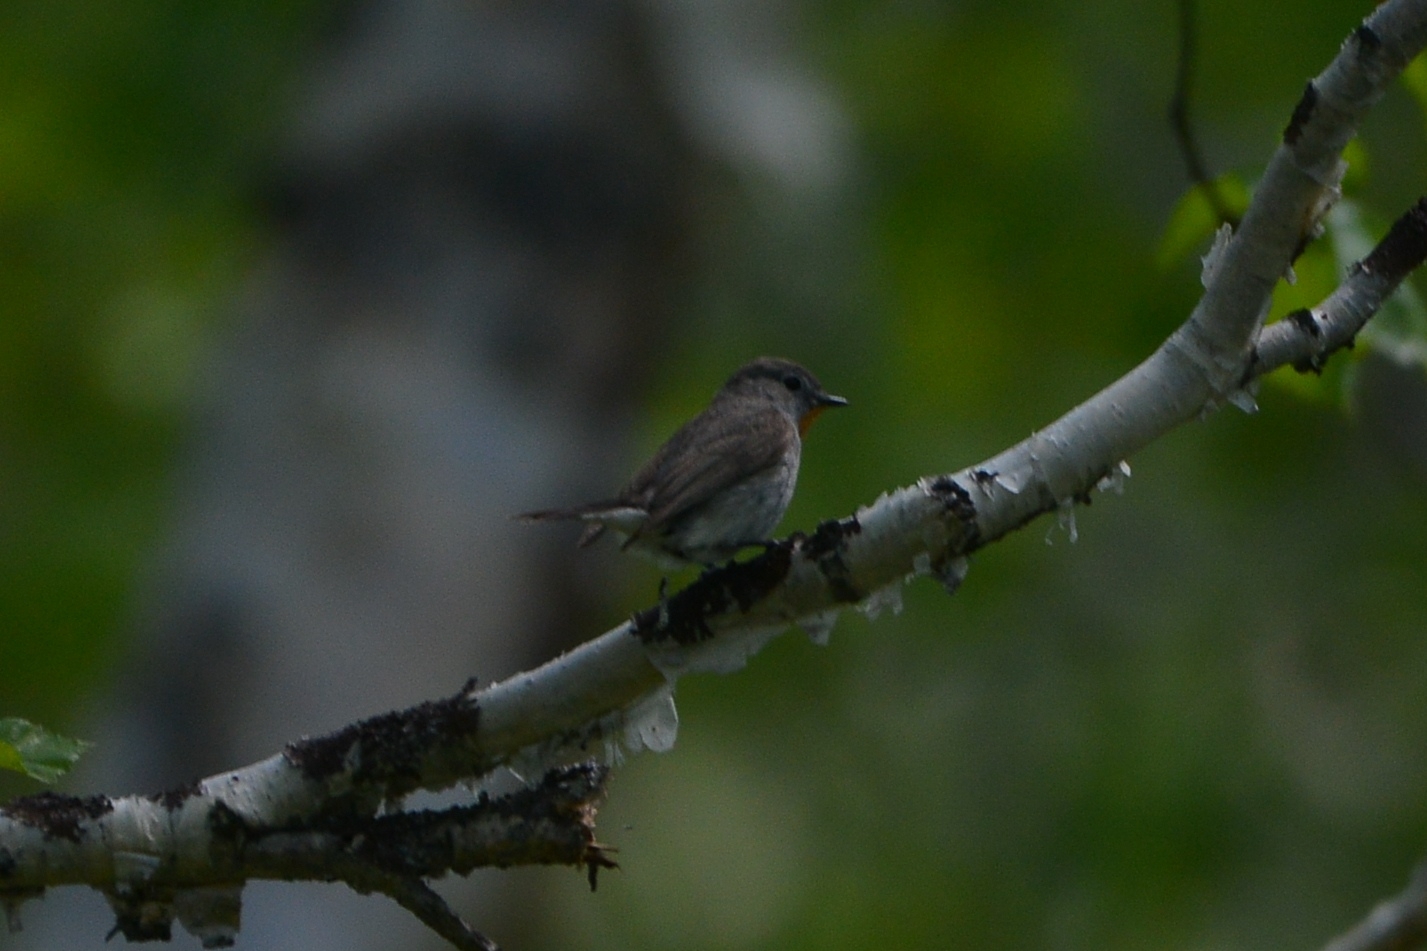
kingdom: Animalia
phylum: Chordata
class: Aves
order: Passeriformes
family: Muscicapidae
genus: Ficedula
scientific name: Ficedula albicilla
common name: Taiga flycatcher
